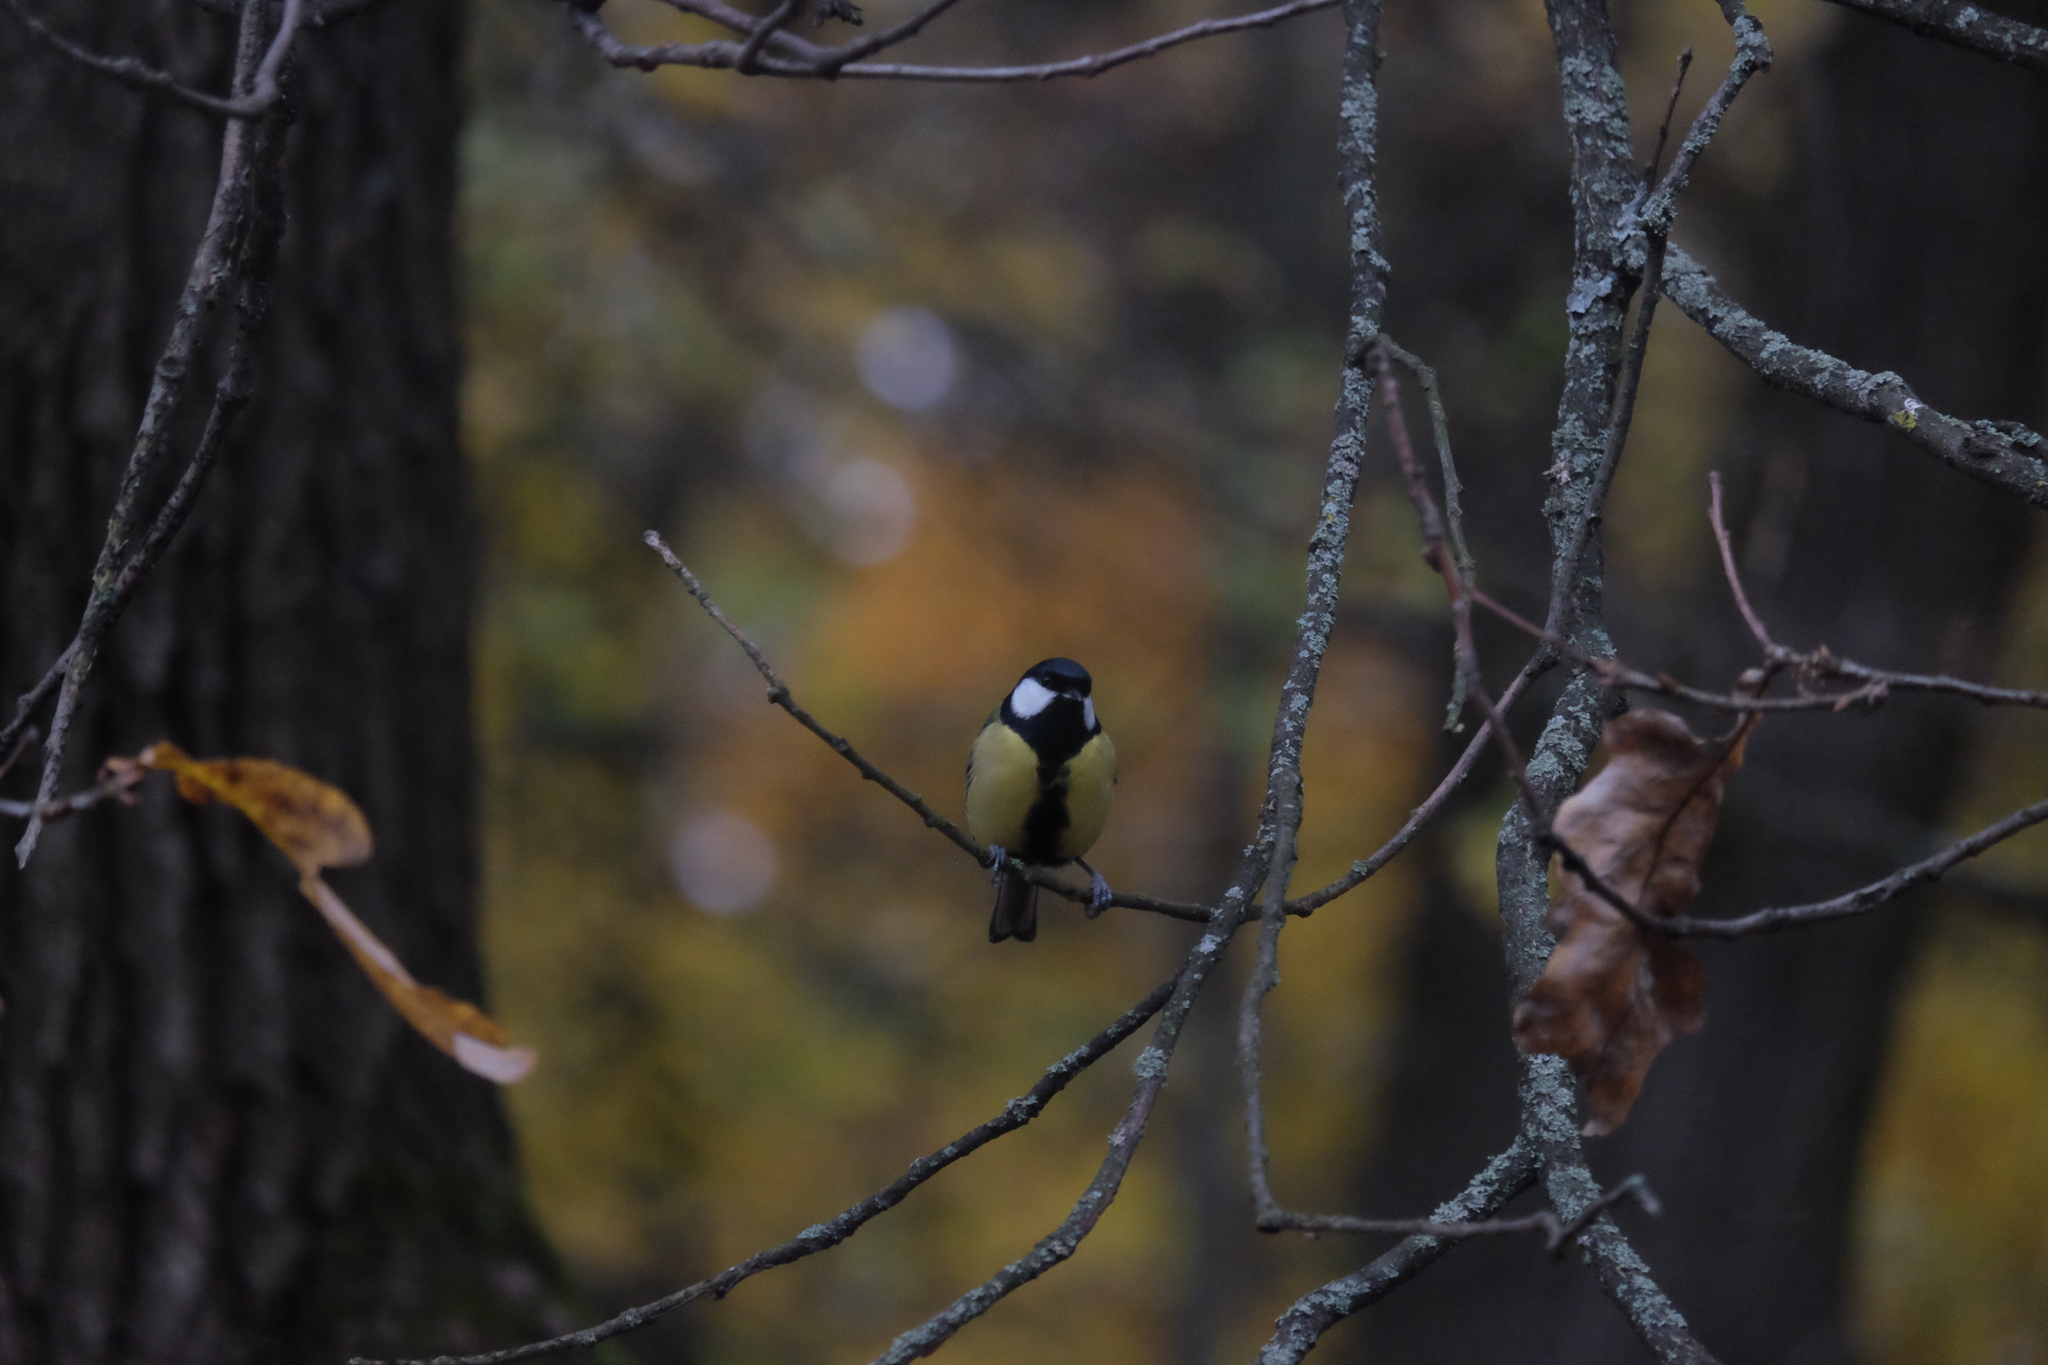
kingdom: Animalia
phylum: Chordata
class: Aves
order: Passeriformes
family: Paridae
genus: Parus
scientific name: Parus major
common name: Great tit
